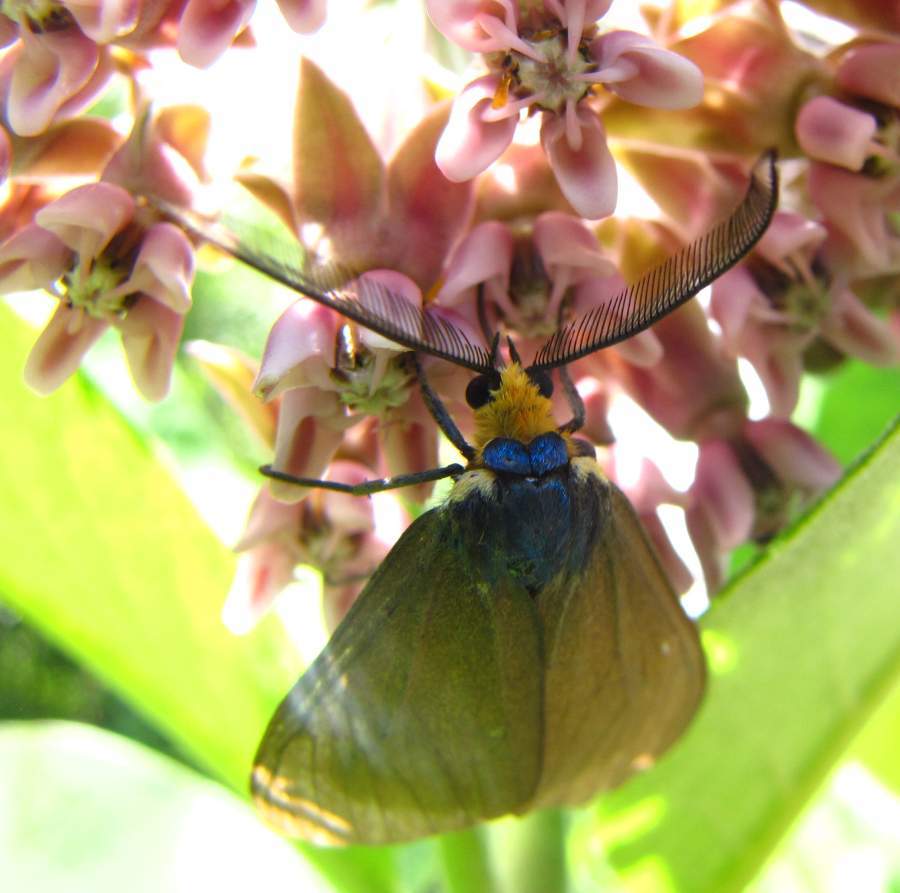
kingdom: Animalia
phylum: Arthropoda
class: Insecta
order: Lepidoptera
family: Erebidae
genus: Ctenucha
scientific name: Ctenucha virginica
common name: Virginia ctenucha moth
